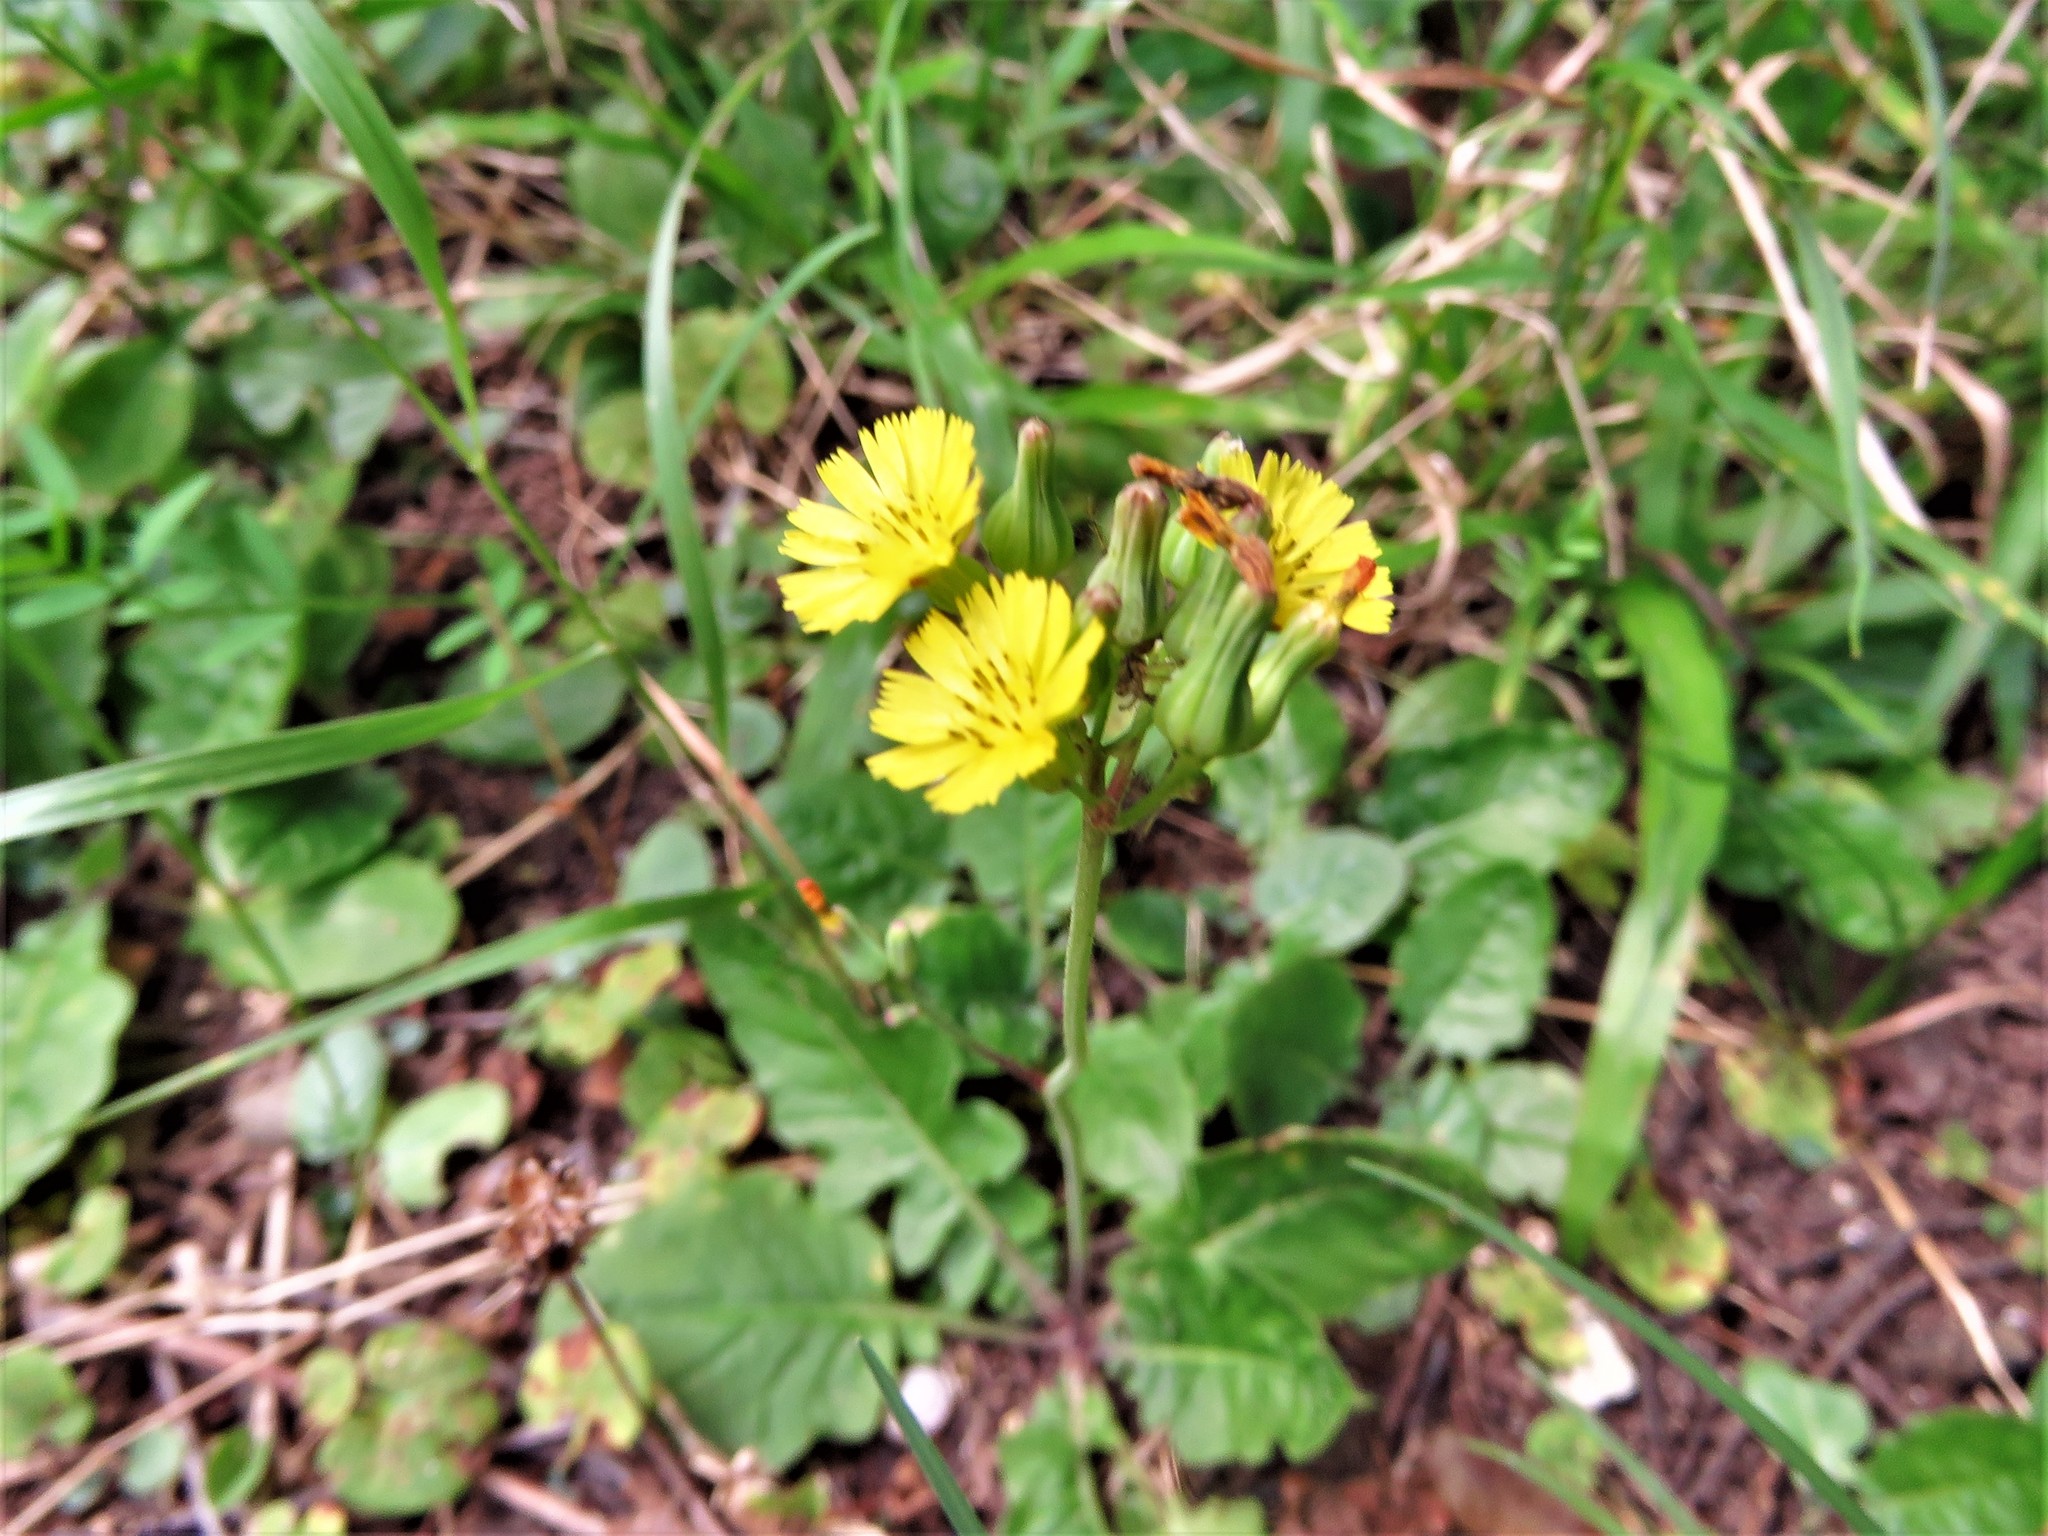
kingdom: Plantae
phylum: Tracheophyta
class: Magnoliopsida
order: Asterales
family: Asteraceae
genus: Youngia
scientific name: Youngia japonica
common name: Oriental false hawksbeard
